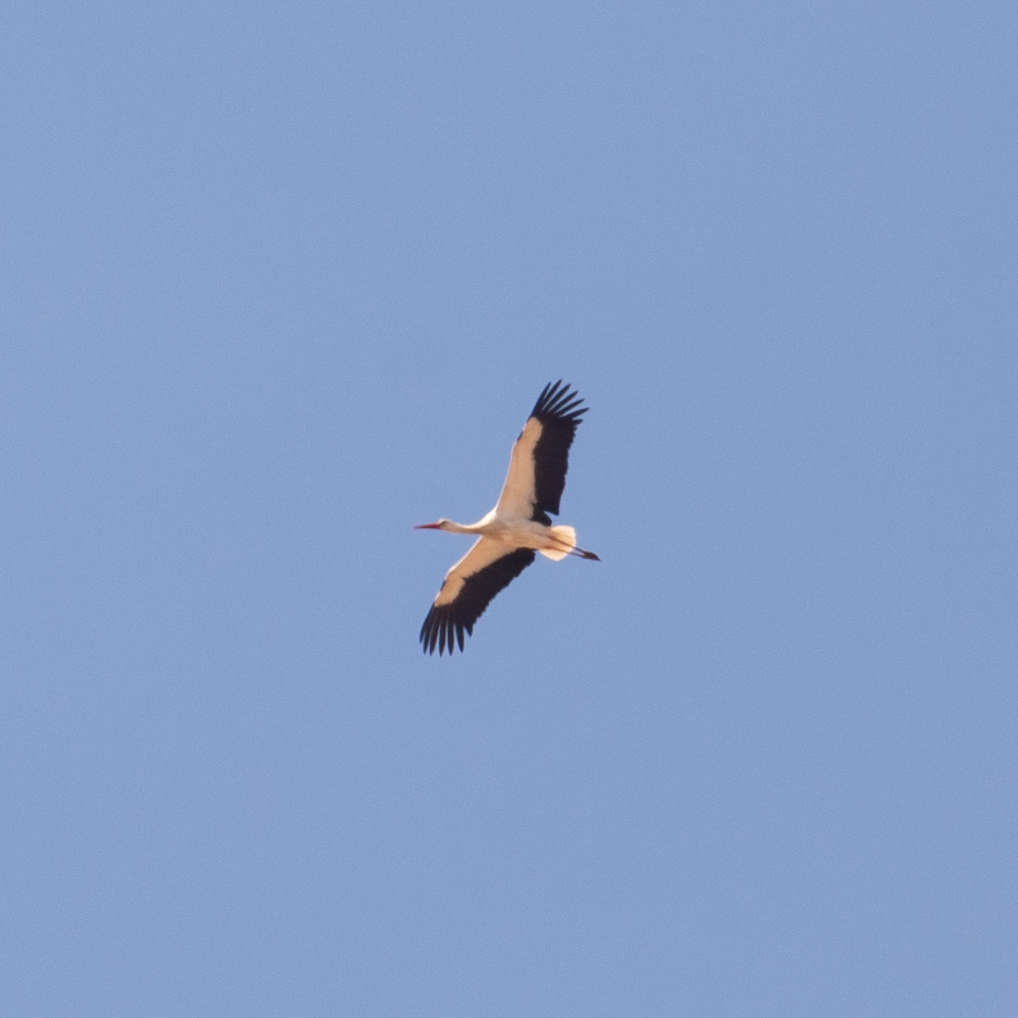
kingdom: Animalia
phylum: Chordata
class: Aves
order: Ciconiiformes
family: Ciconiidae
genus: Ciconia
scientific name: Ciconia ciconia
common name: White stork
